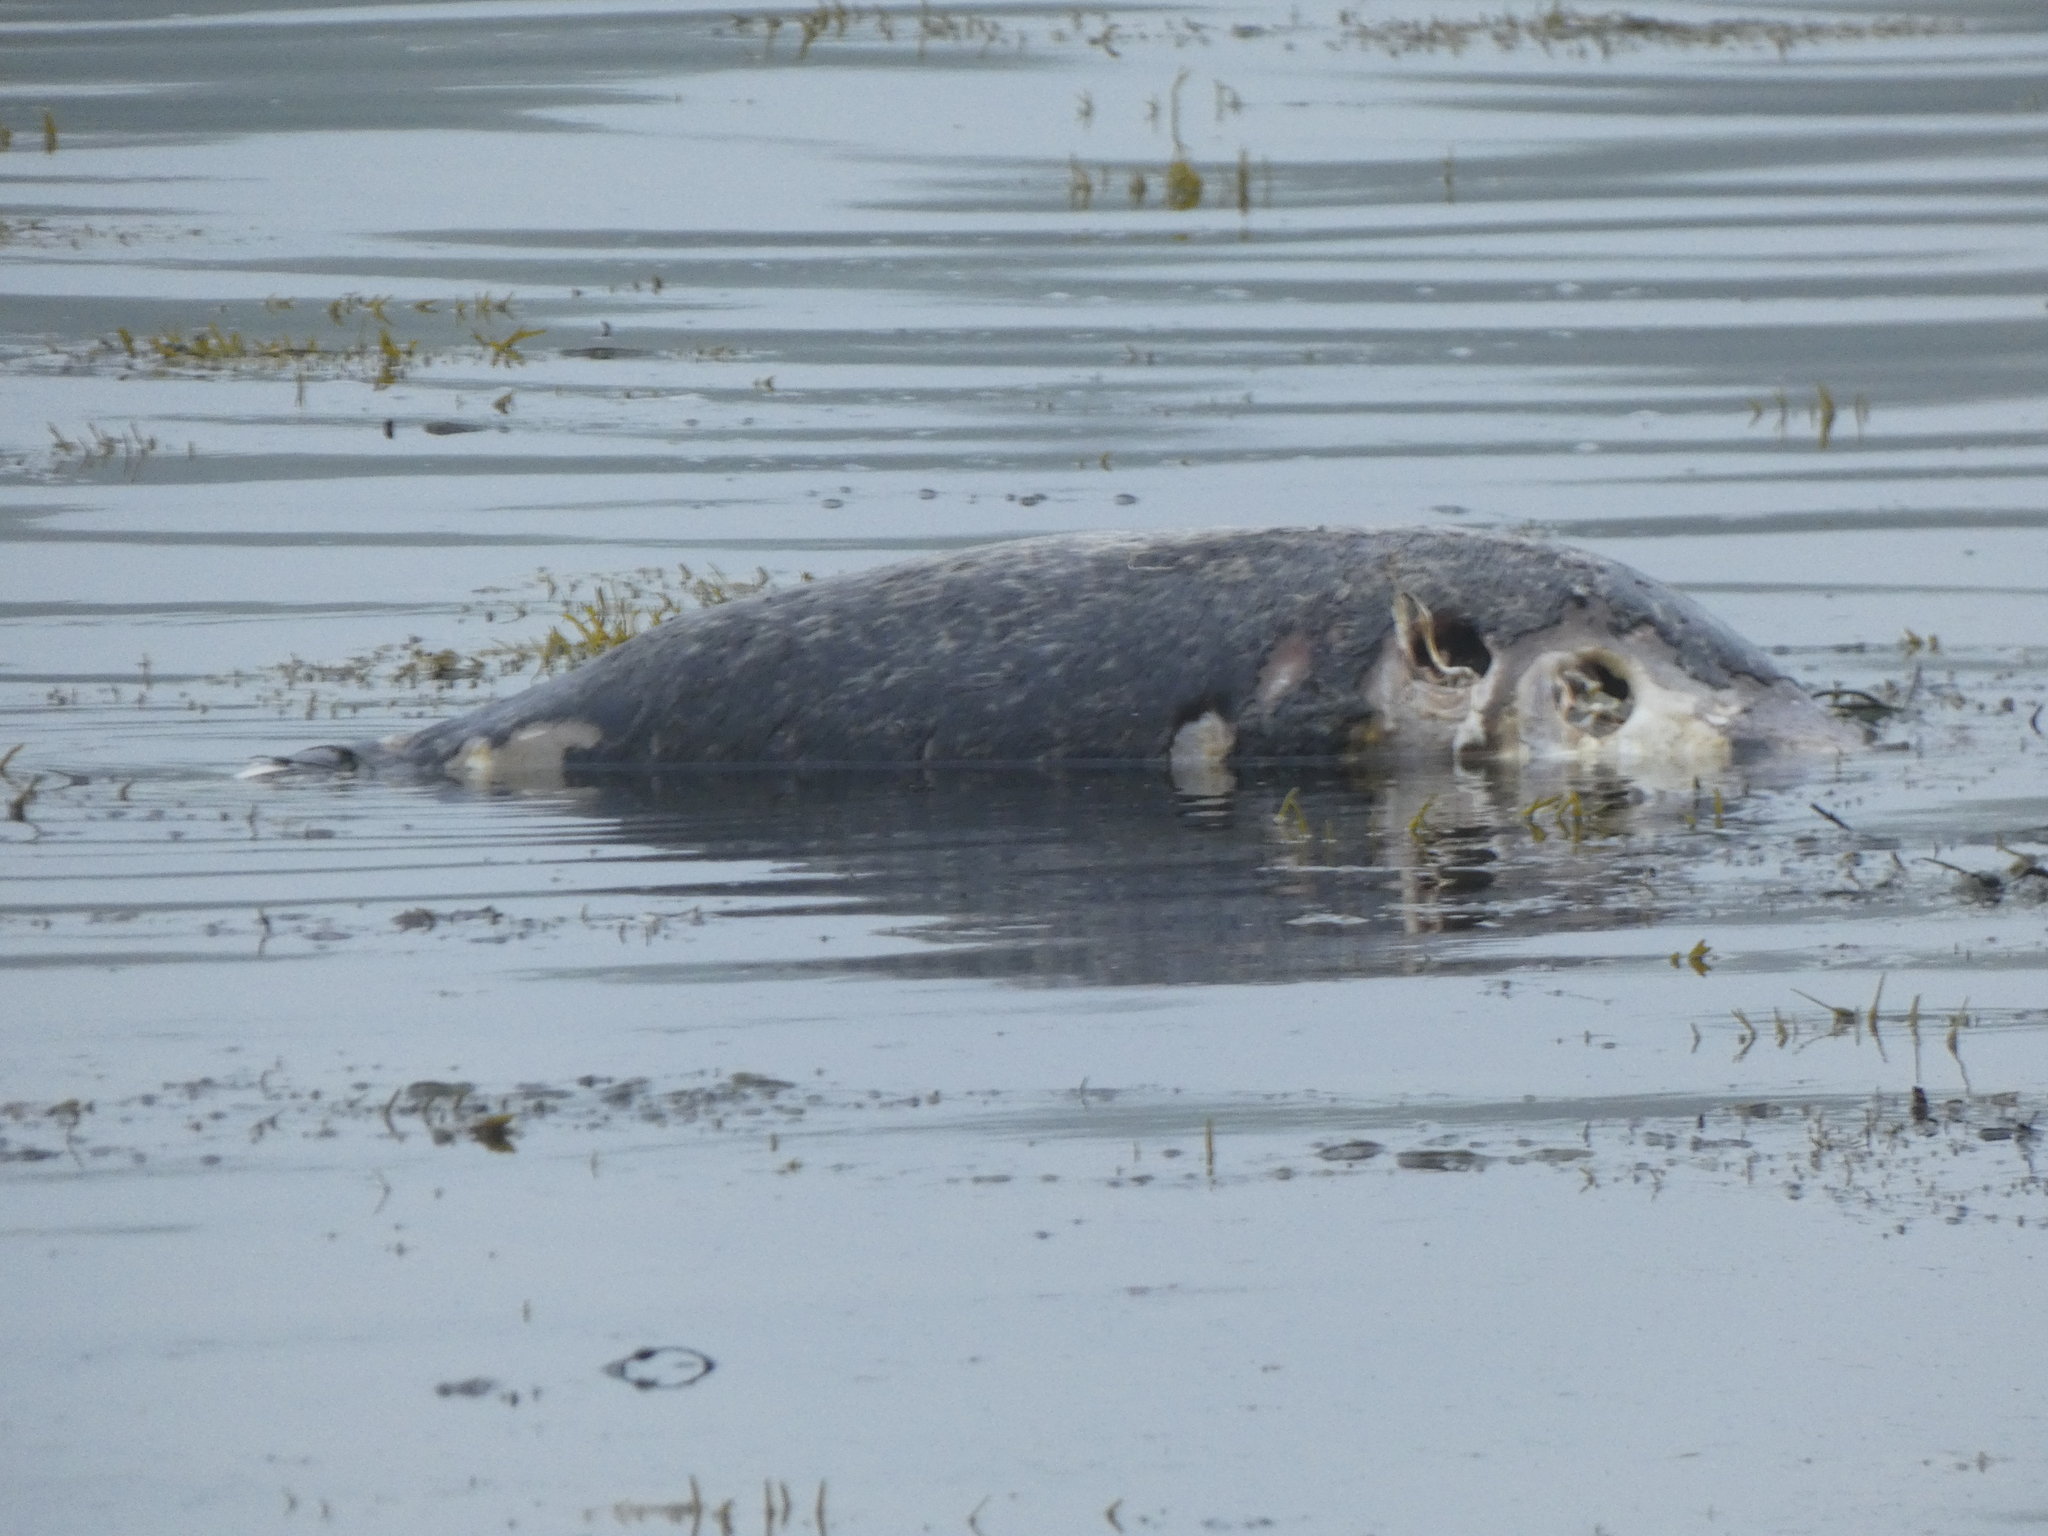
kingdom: Animalia
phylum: Chordata
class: Mammalia
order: Carnivora
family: Phocidae
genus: Phoca
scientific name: Phoca vitulina
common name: Harbor seal
